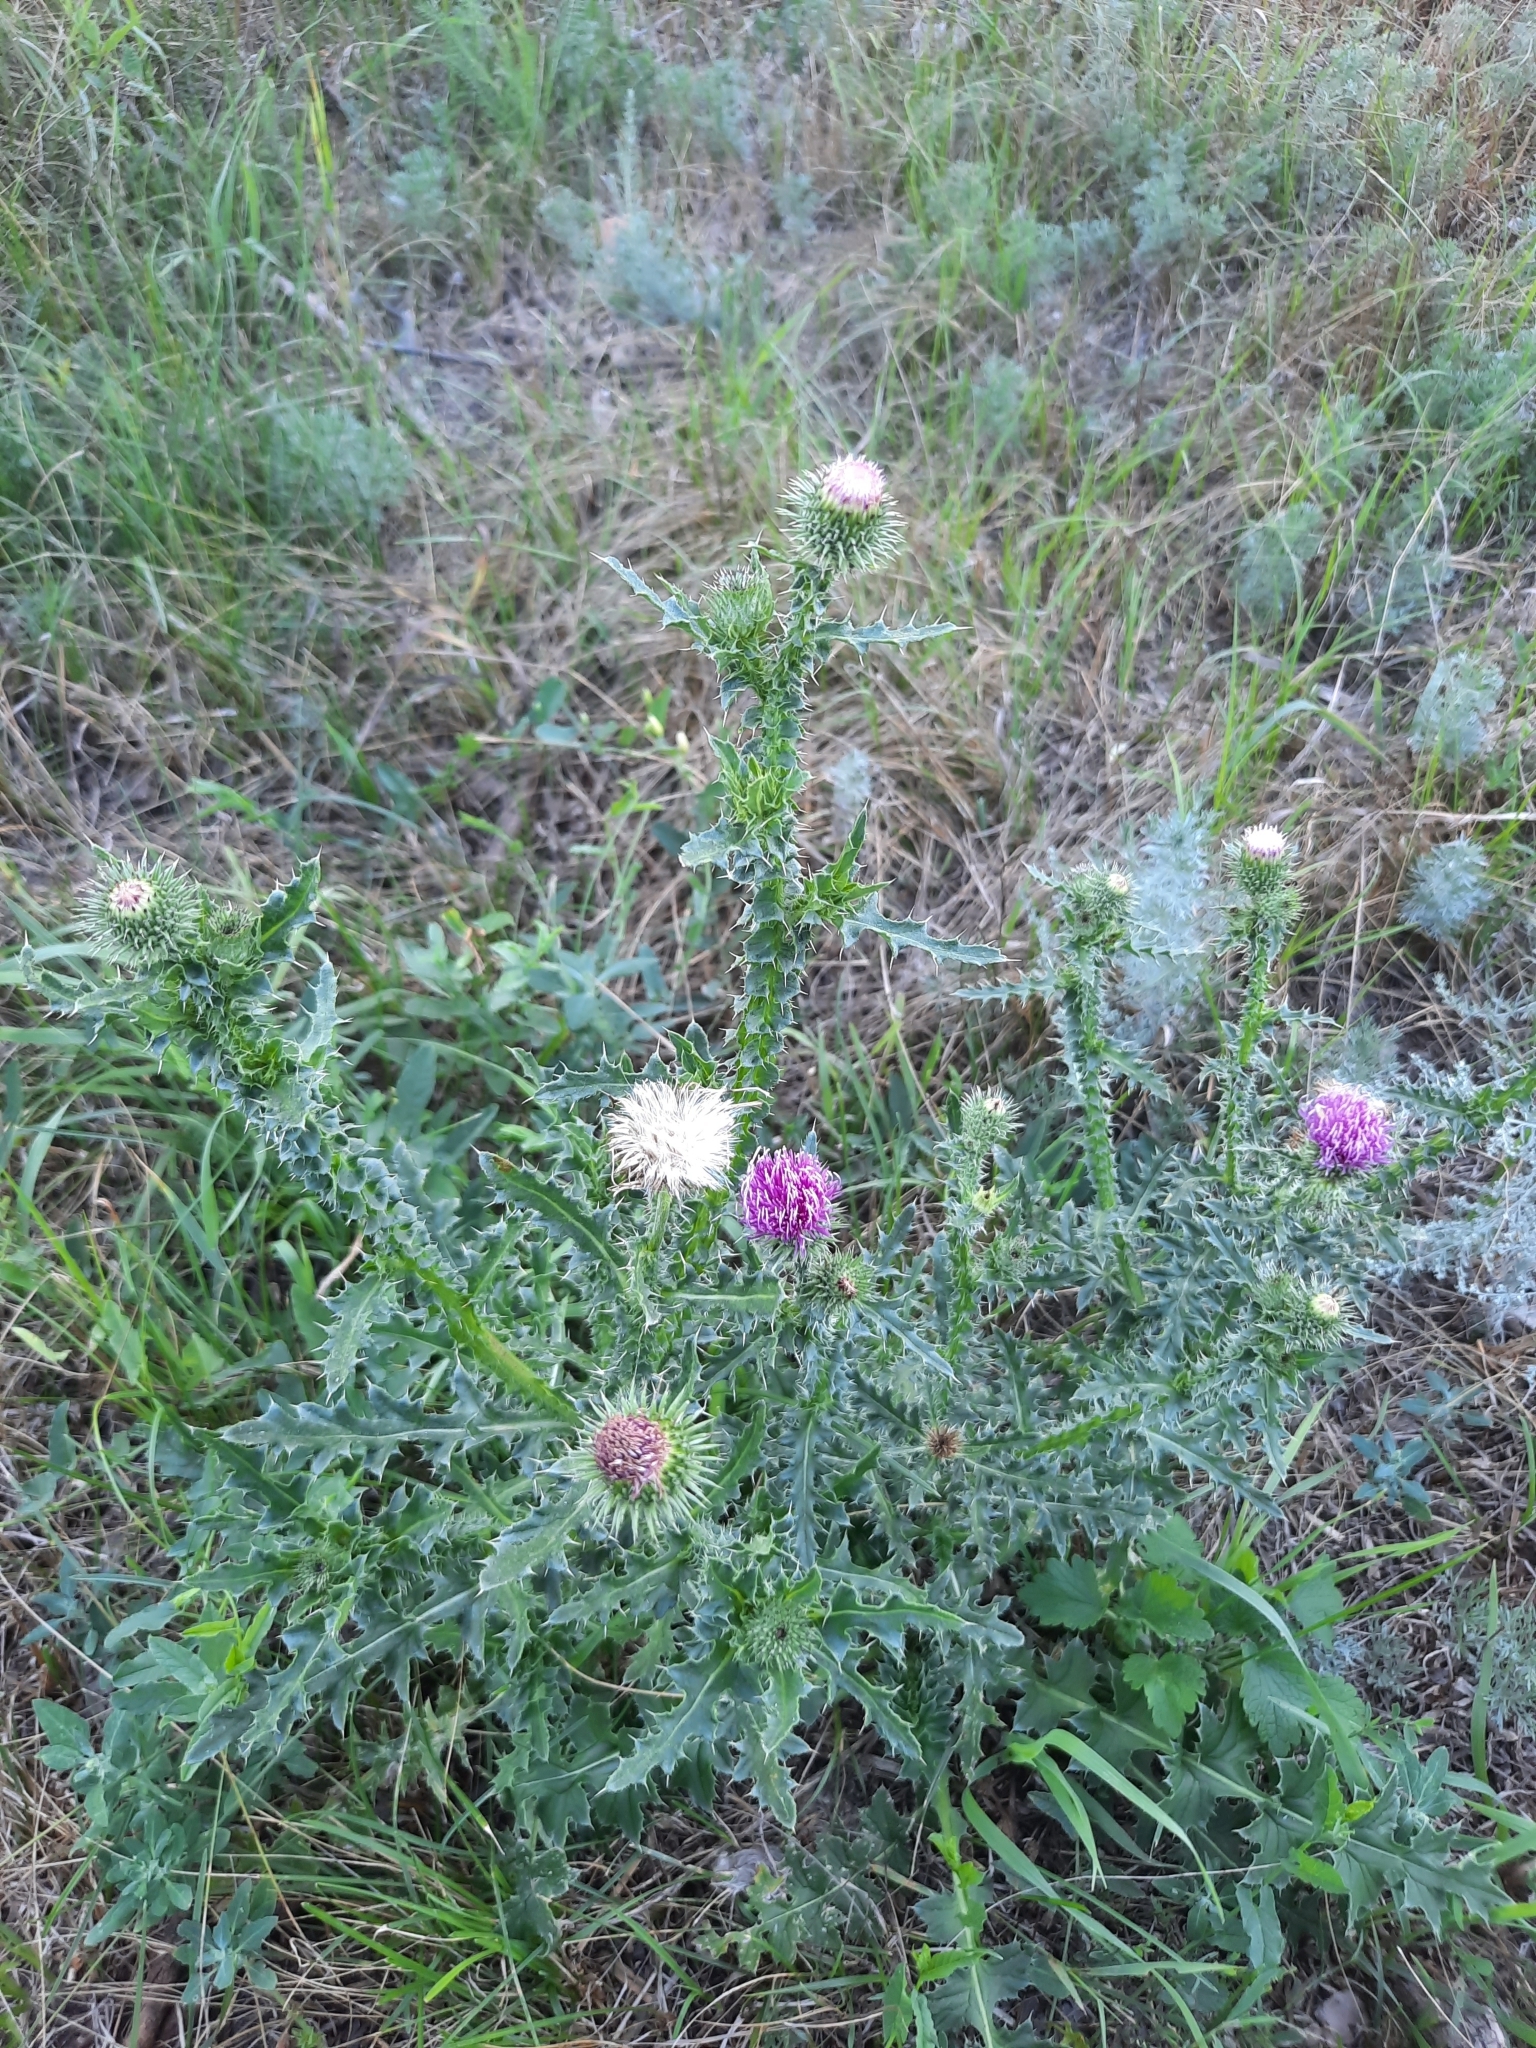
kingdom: Plantae
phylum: Tracheophyta
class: Magnoliopsida
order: Asterales
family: Asteraceae
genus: Carduus
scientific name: Carduus acanthoides
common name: Plumeless thistle
